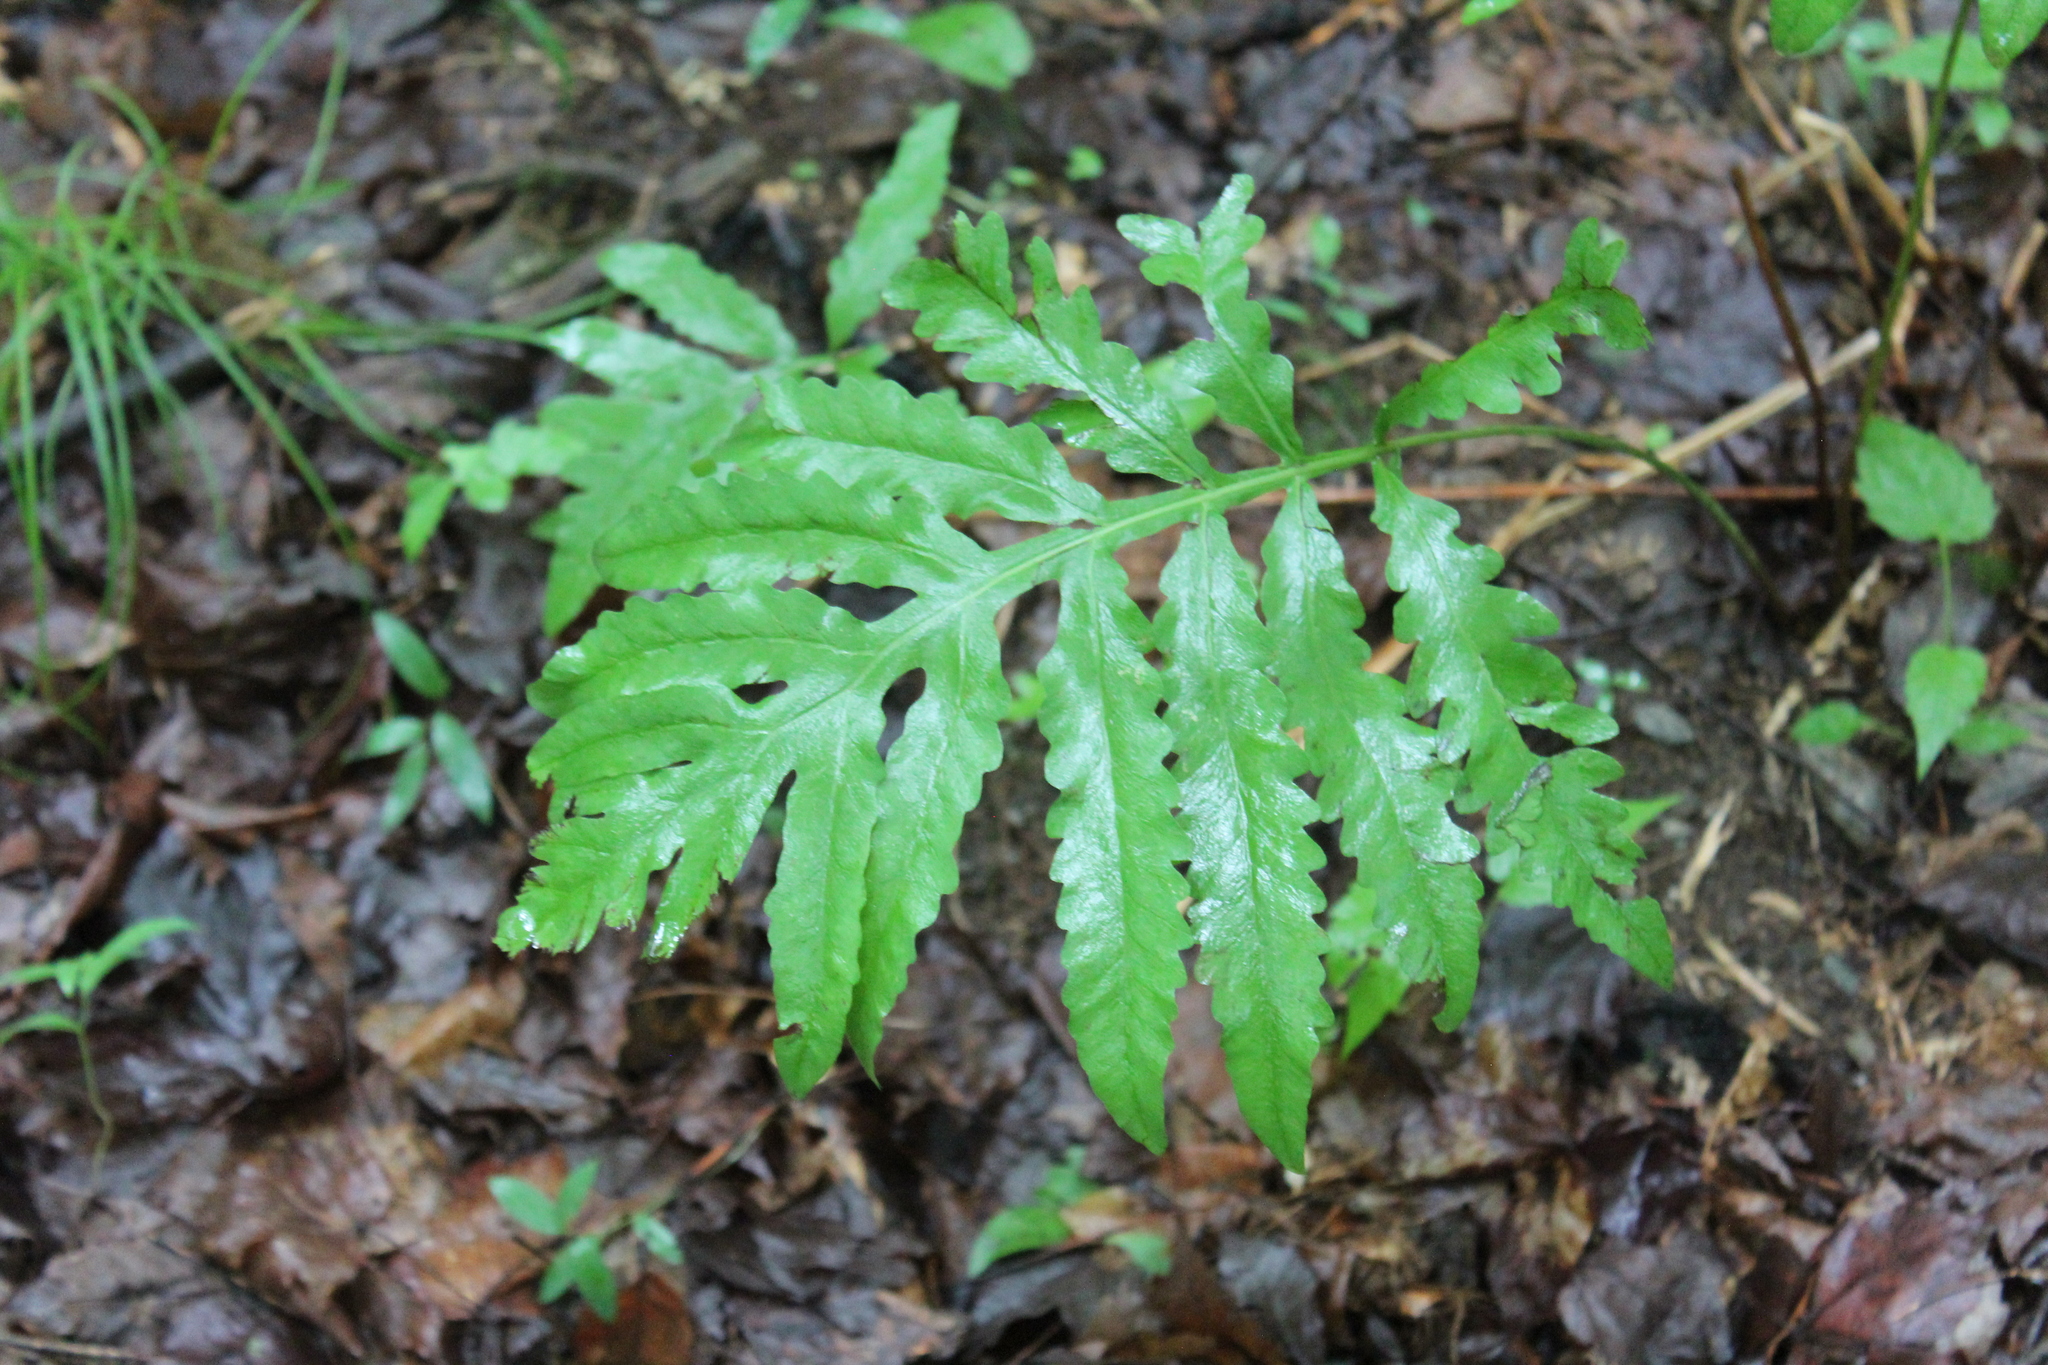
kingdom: Plantae
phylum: Tracheophyta
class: Polypodiopsida
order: Polypodiales
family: Onocleaceae
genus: Onoclea
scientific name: Onoclea sensibilis
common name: Sensitive fern
